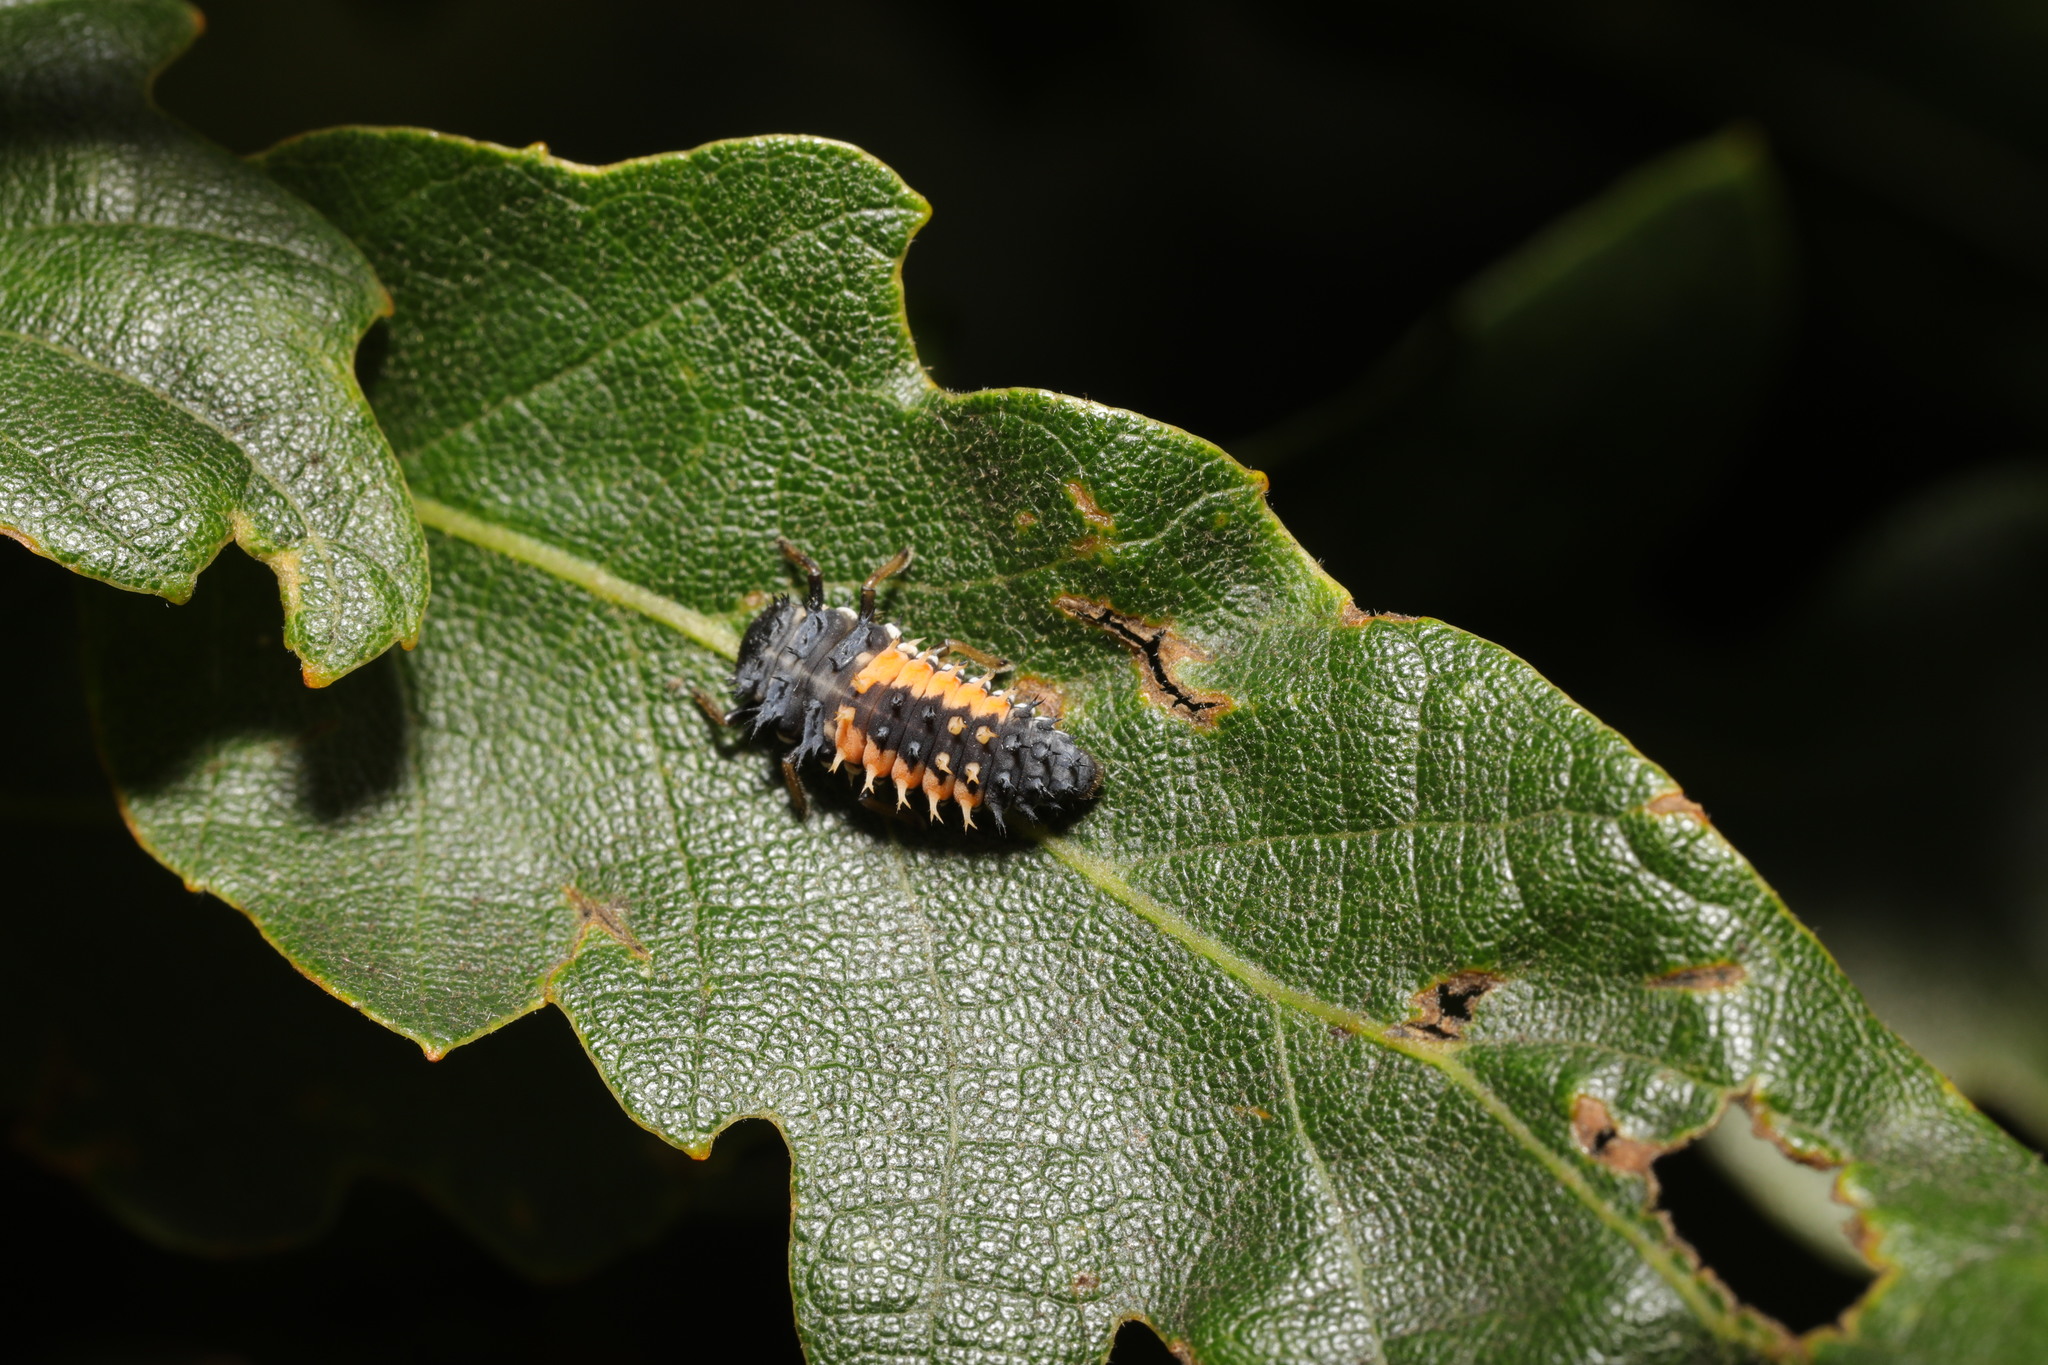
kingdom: Animalia
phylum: Arthropoda
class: Insecta
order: Coleoptera
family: Coccinellidae
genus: Harmonia
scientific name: Harmonia axyridis
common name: Harlequin ladybird
